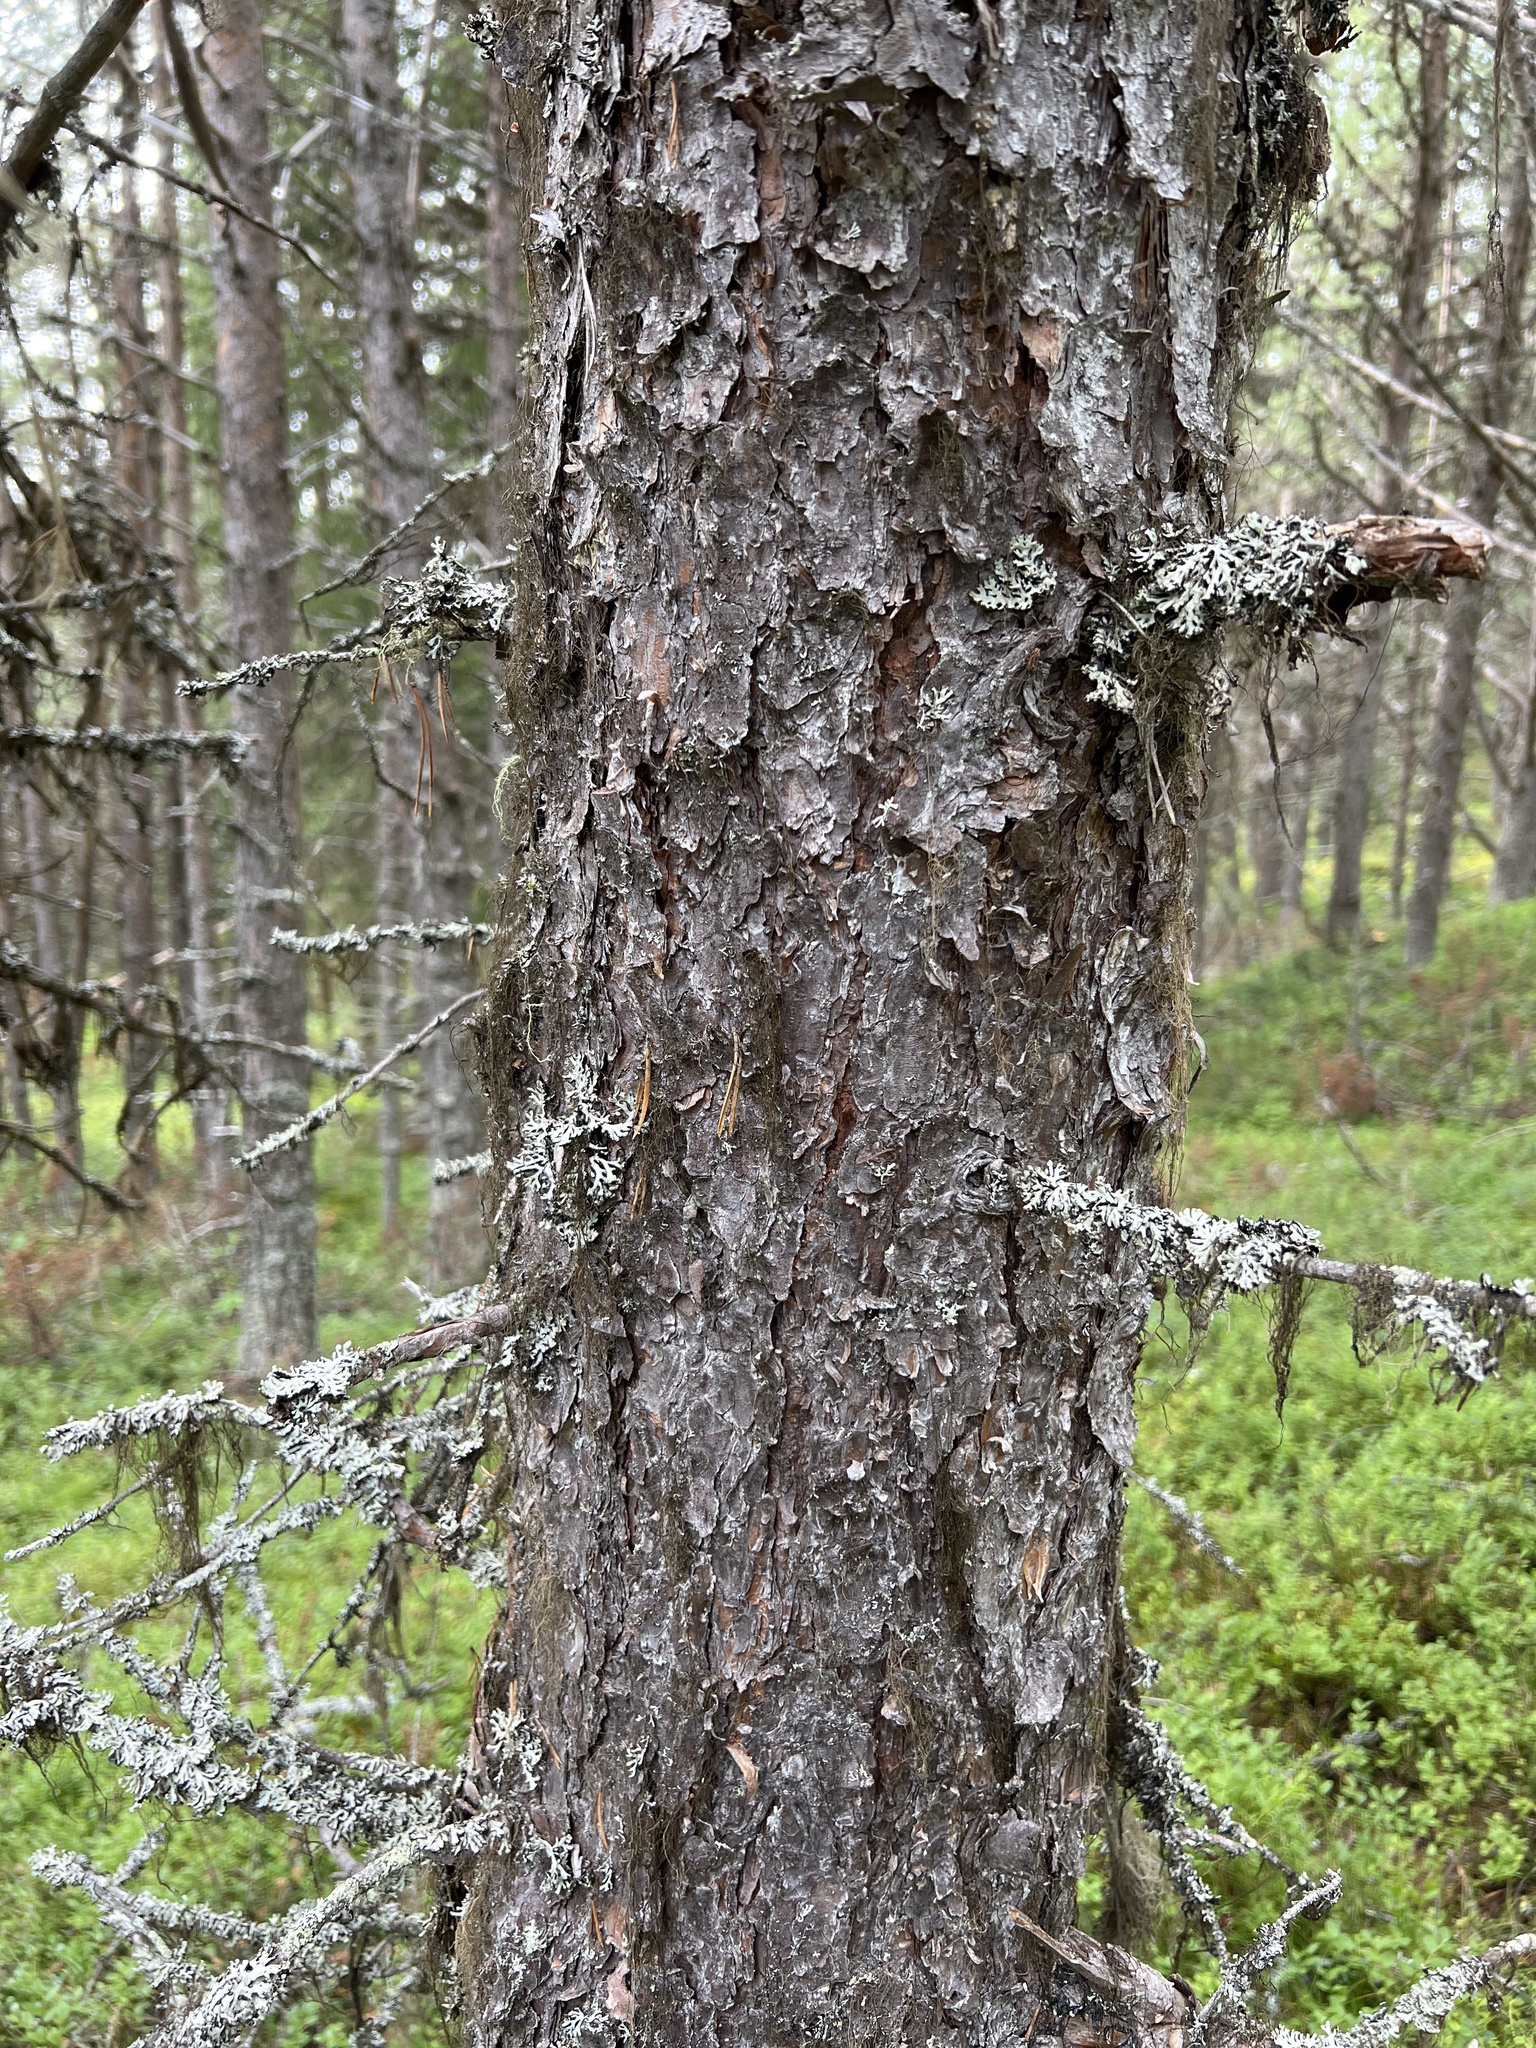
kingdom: Plantae
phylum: Tracheophyta
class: Pinopsida
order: Pinales
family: Pinaceae
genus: Pinus
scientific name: Pinus sylvestris
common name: Scots pine
